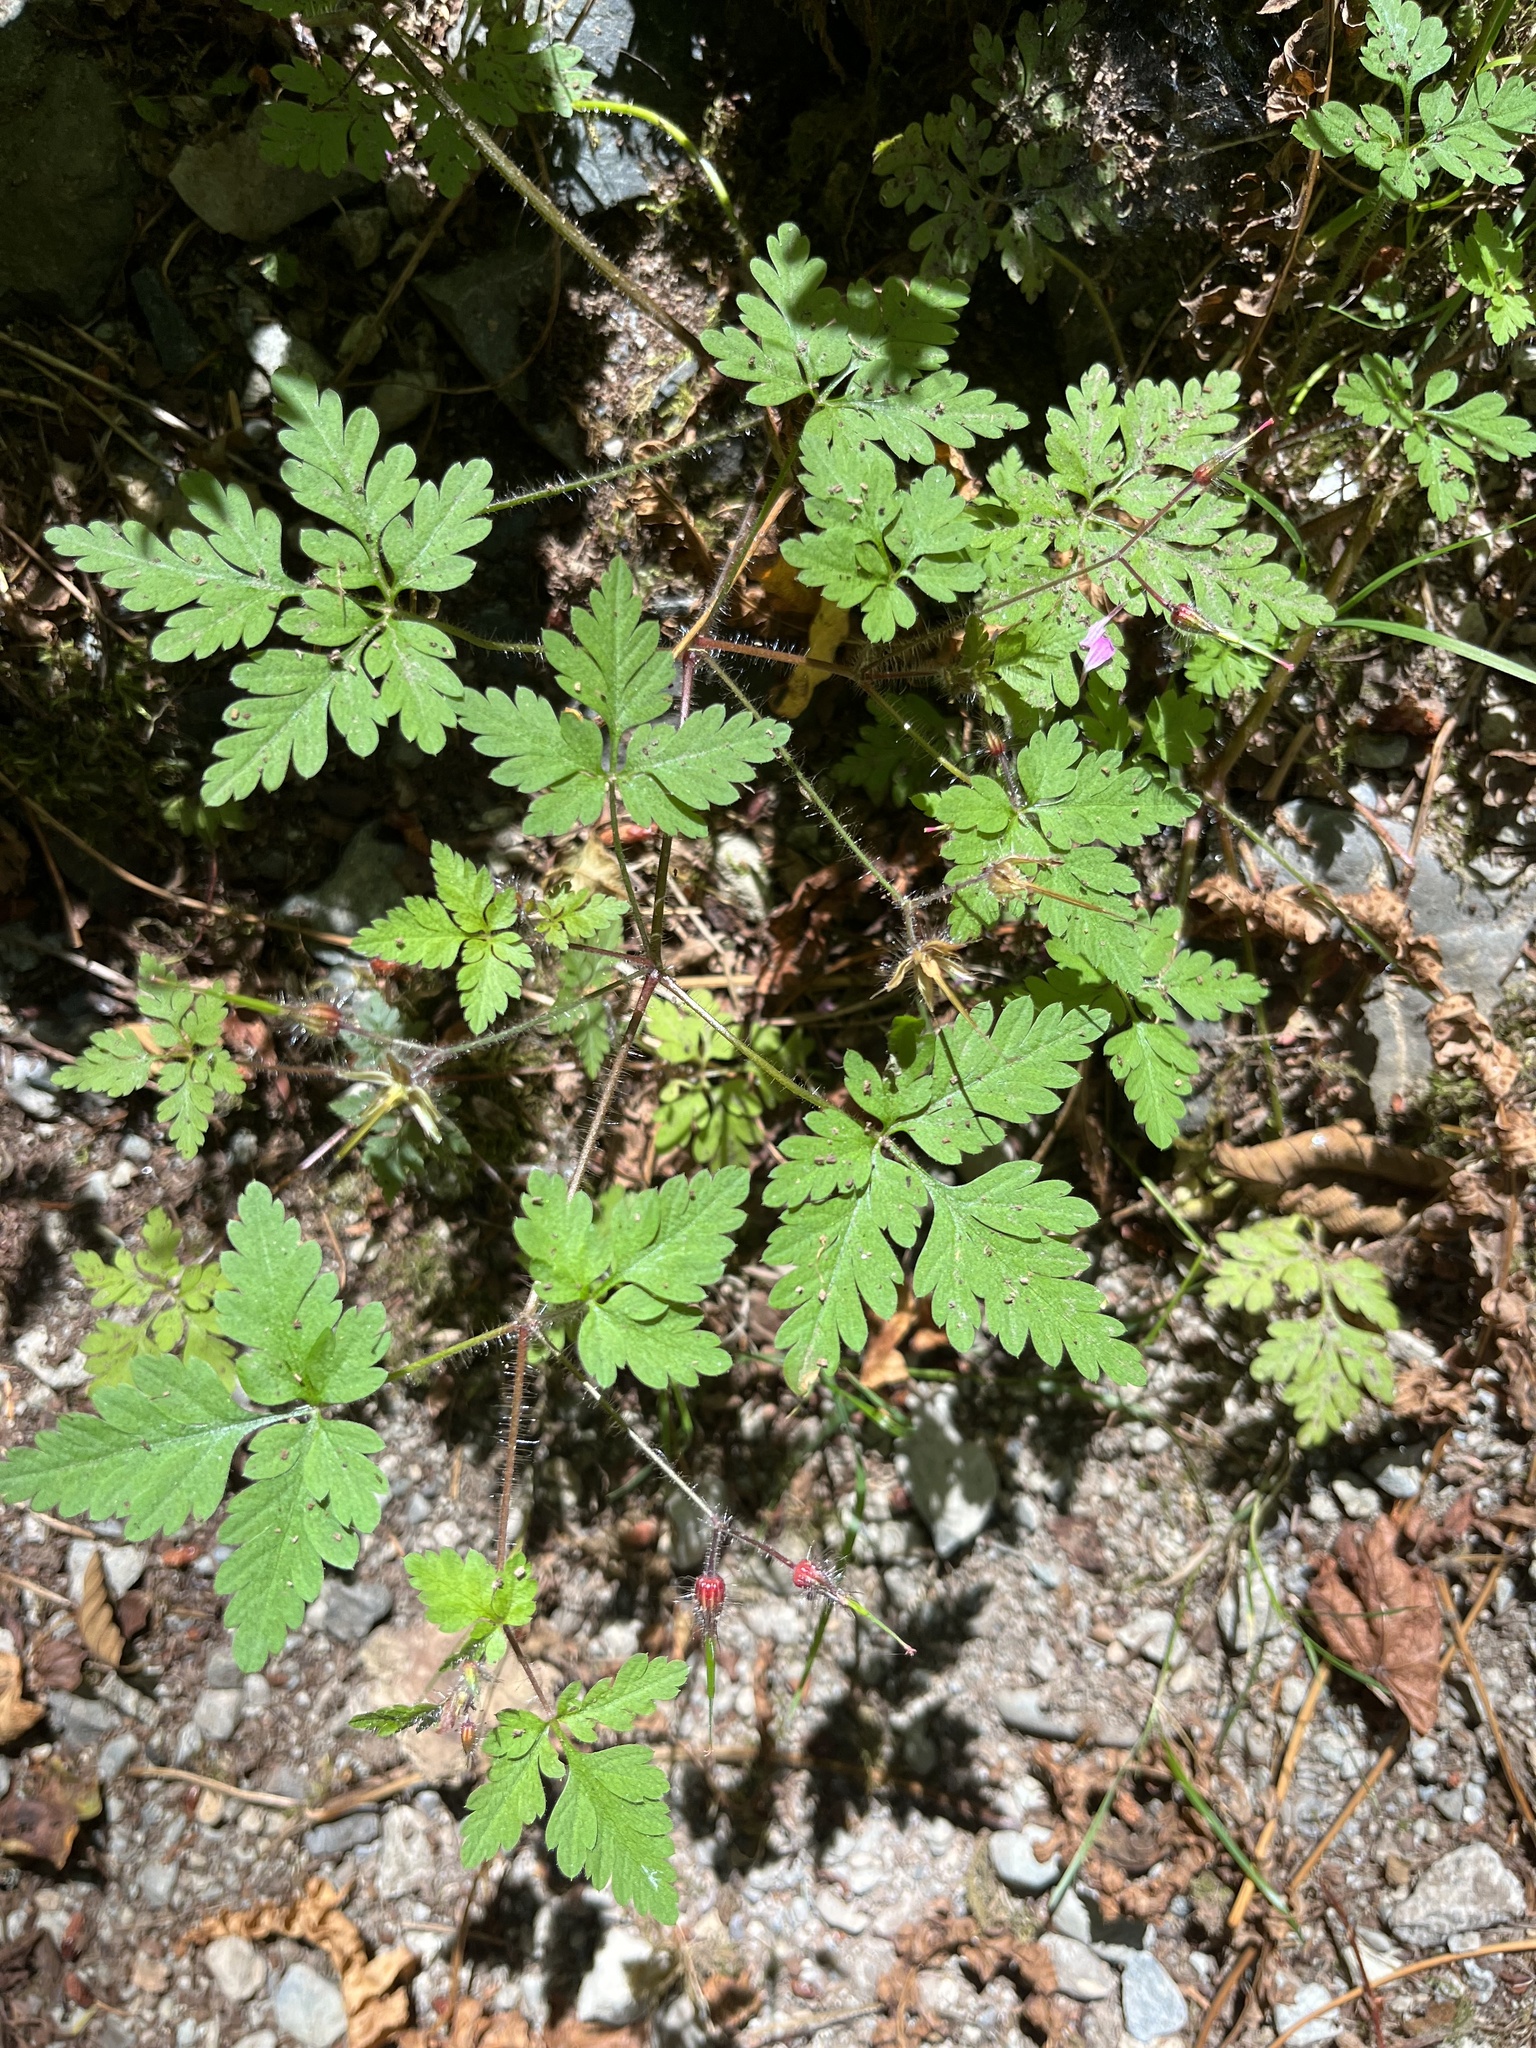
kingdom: Plantae
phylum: Tracheophyta
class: Magnoliopsida
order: Geraniales
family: Geraniaceae
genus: Geranium
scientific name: Geranium robertianum
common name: Herb-robert
